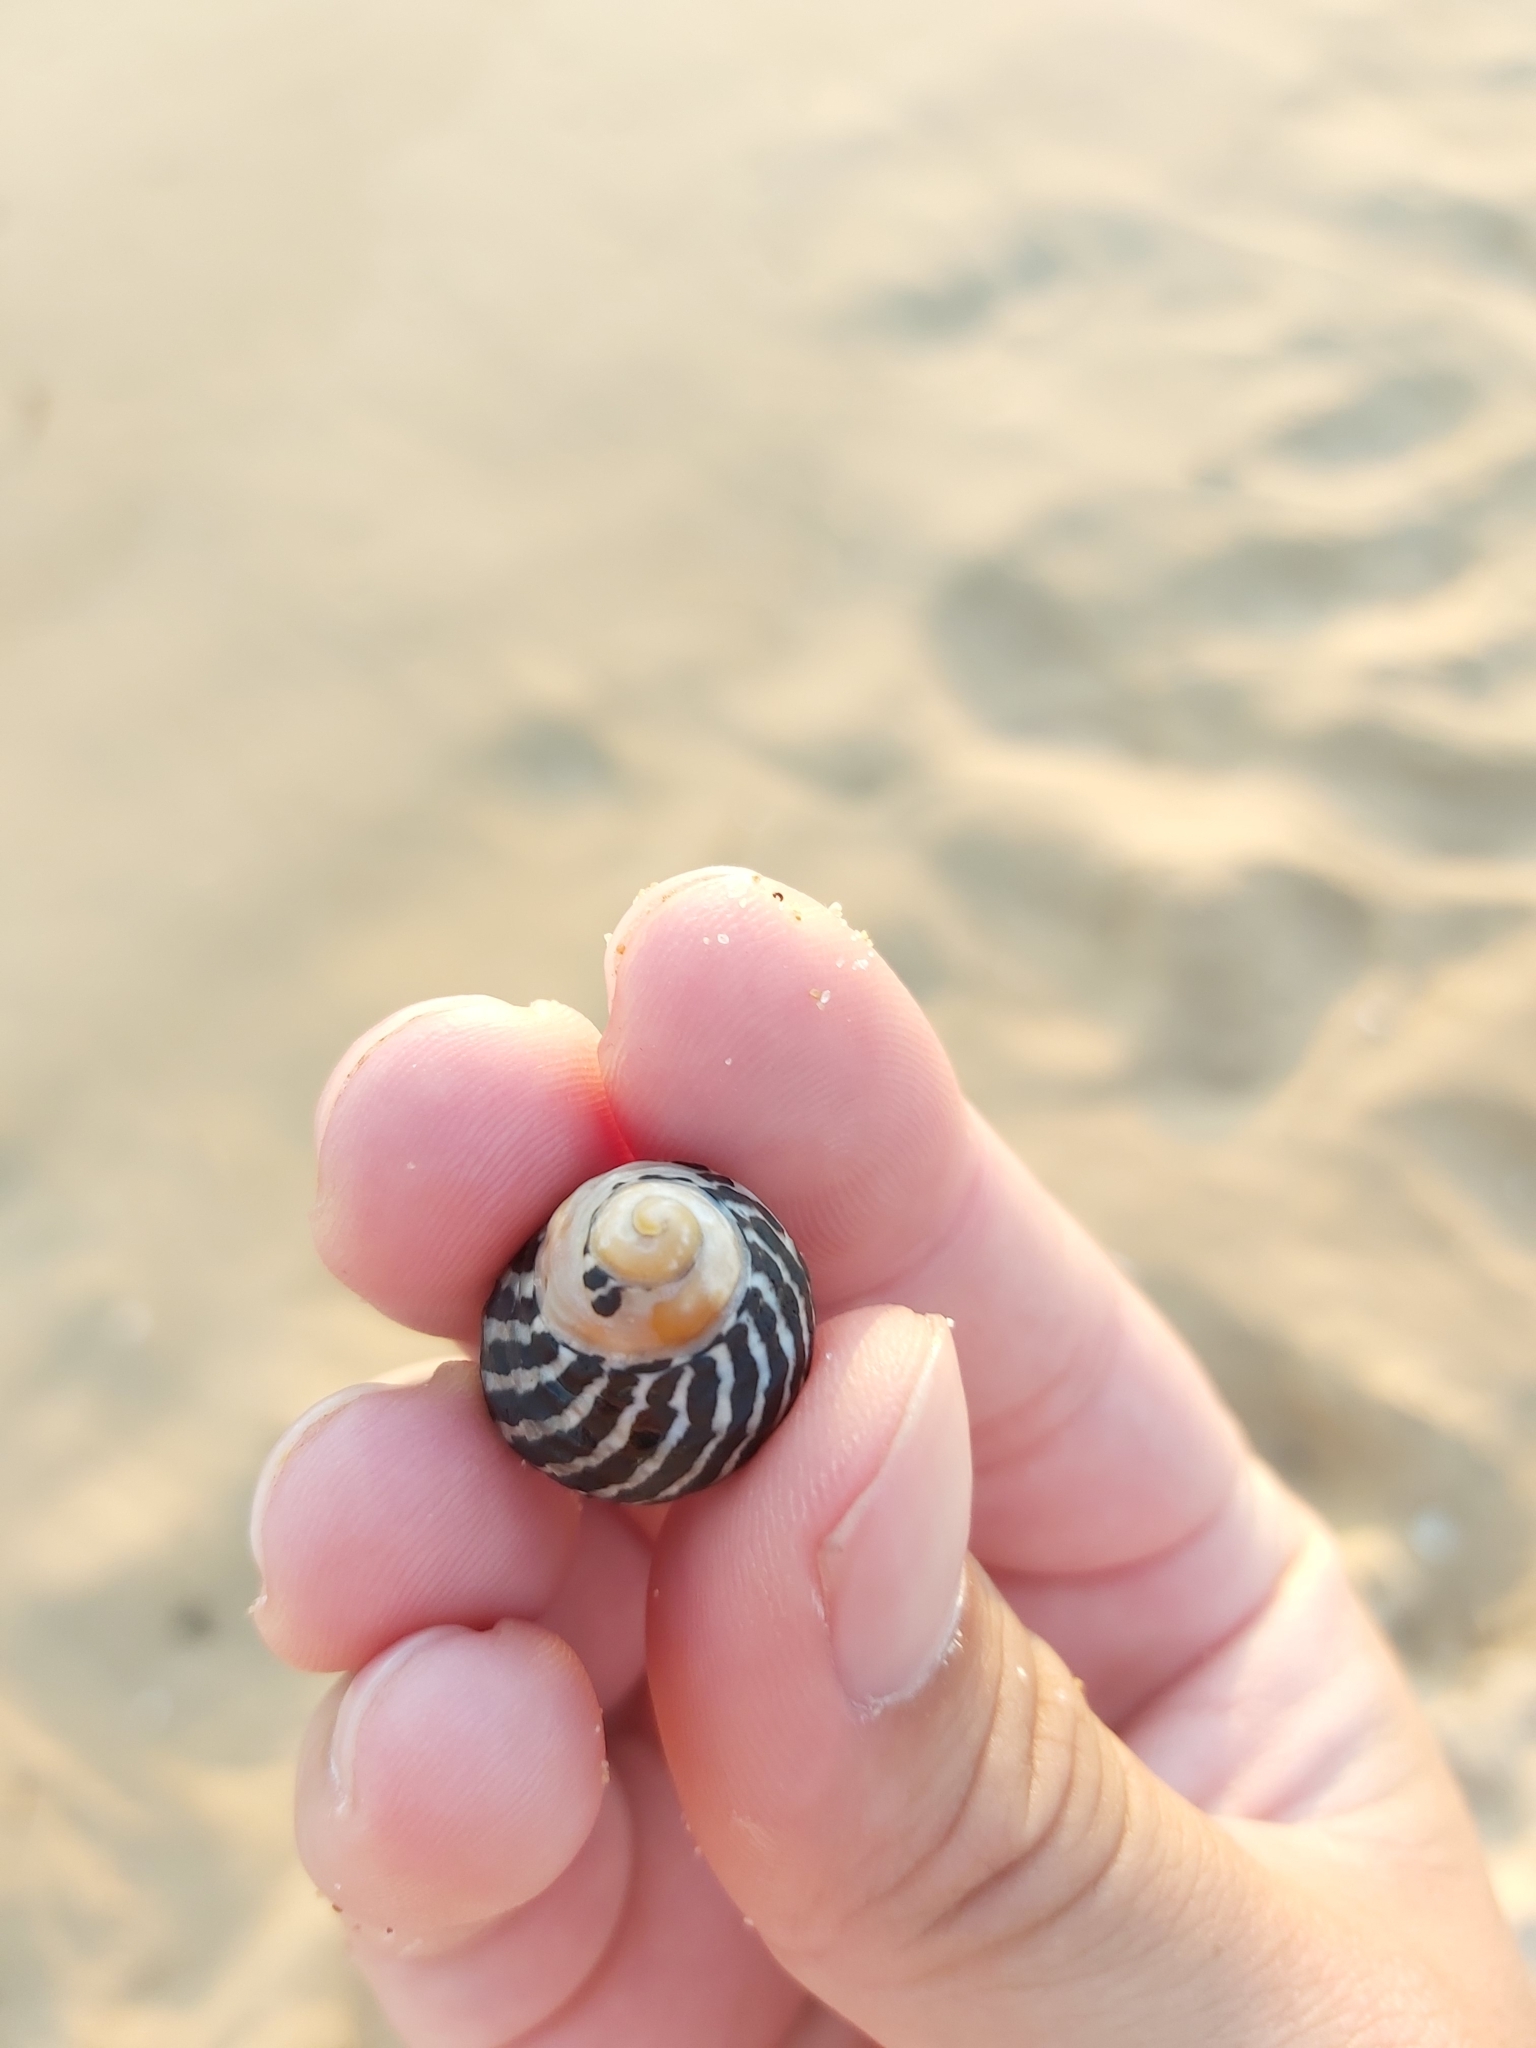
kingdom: Animalia
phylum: Mollusca
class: Gastropoda
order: Trochida
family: Trochidae
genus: Austrocochlea
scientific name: Austrocochlea porcata
